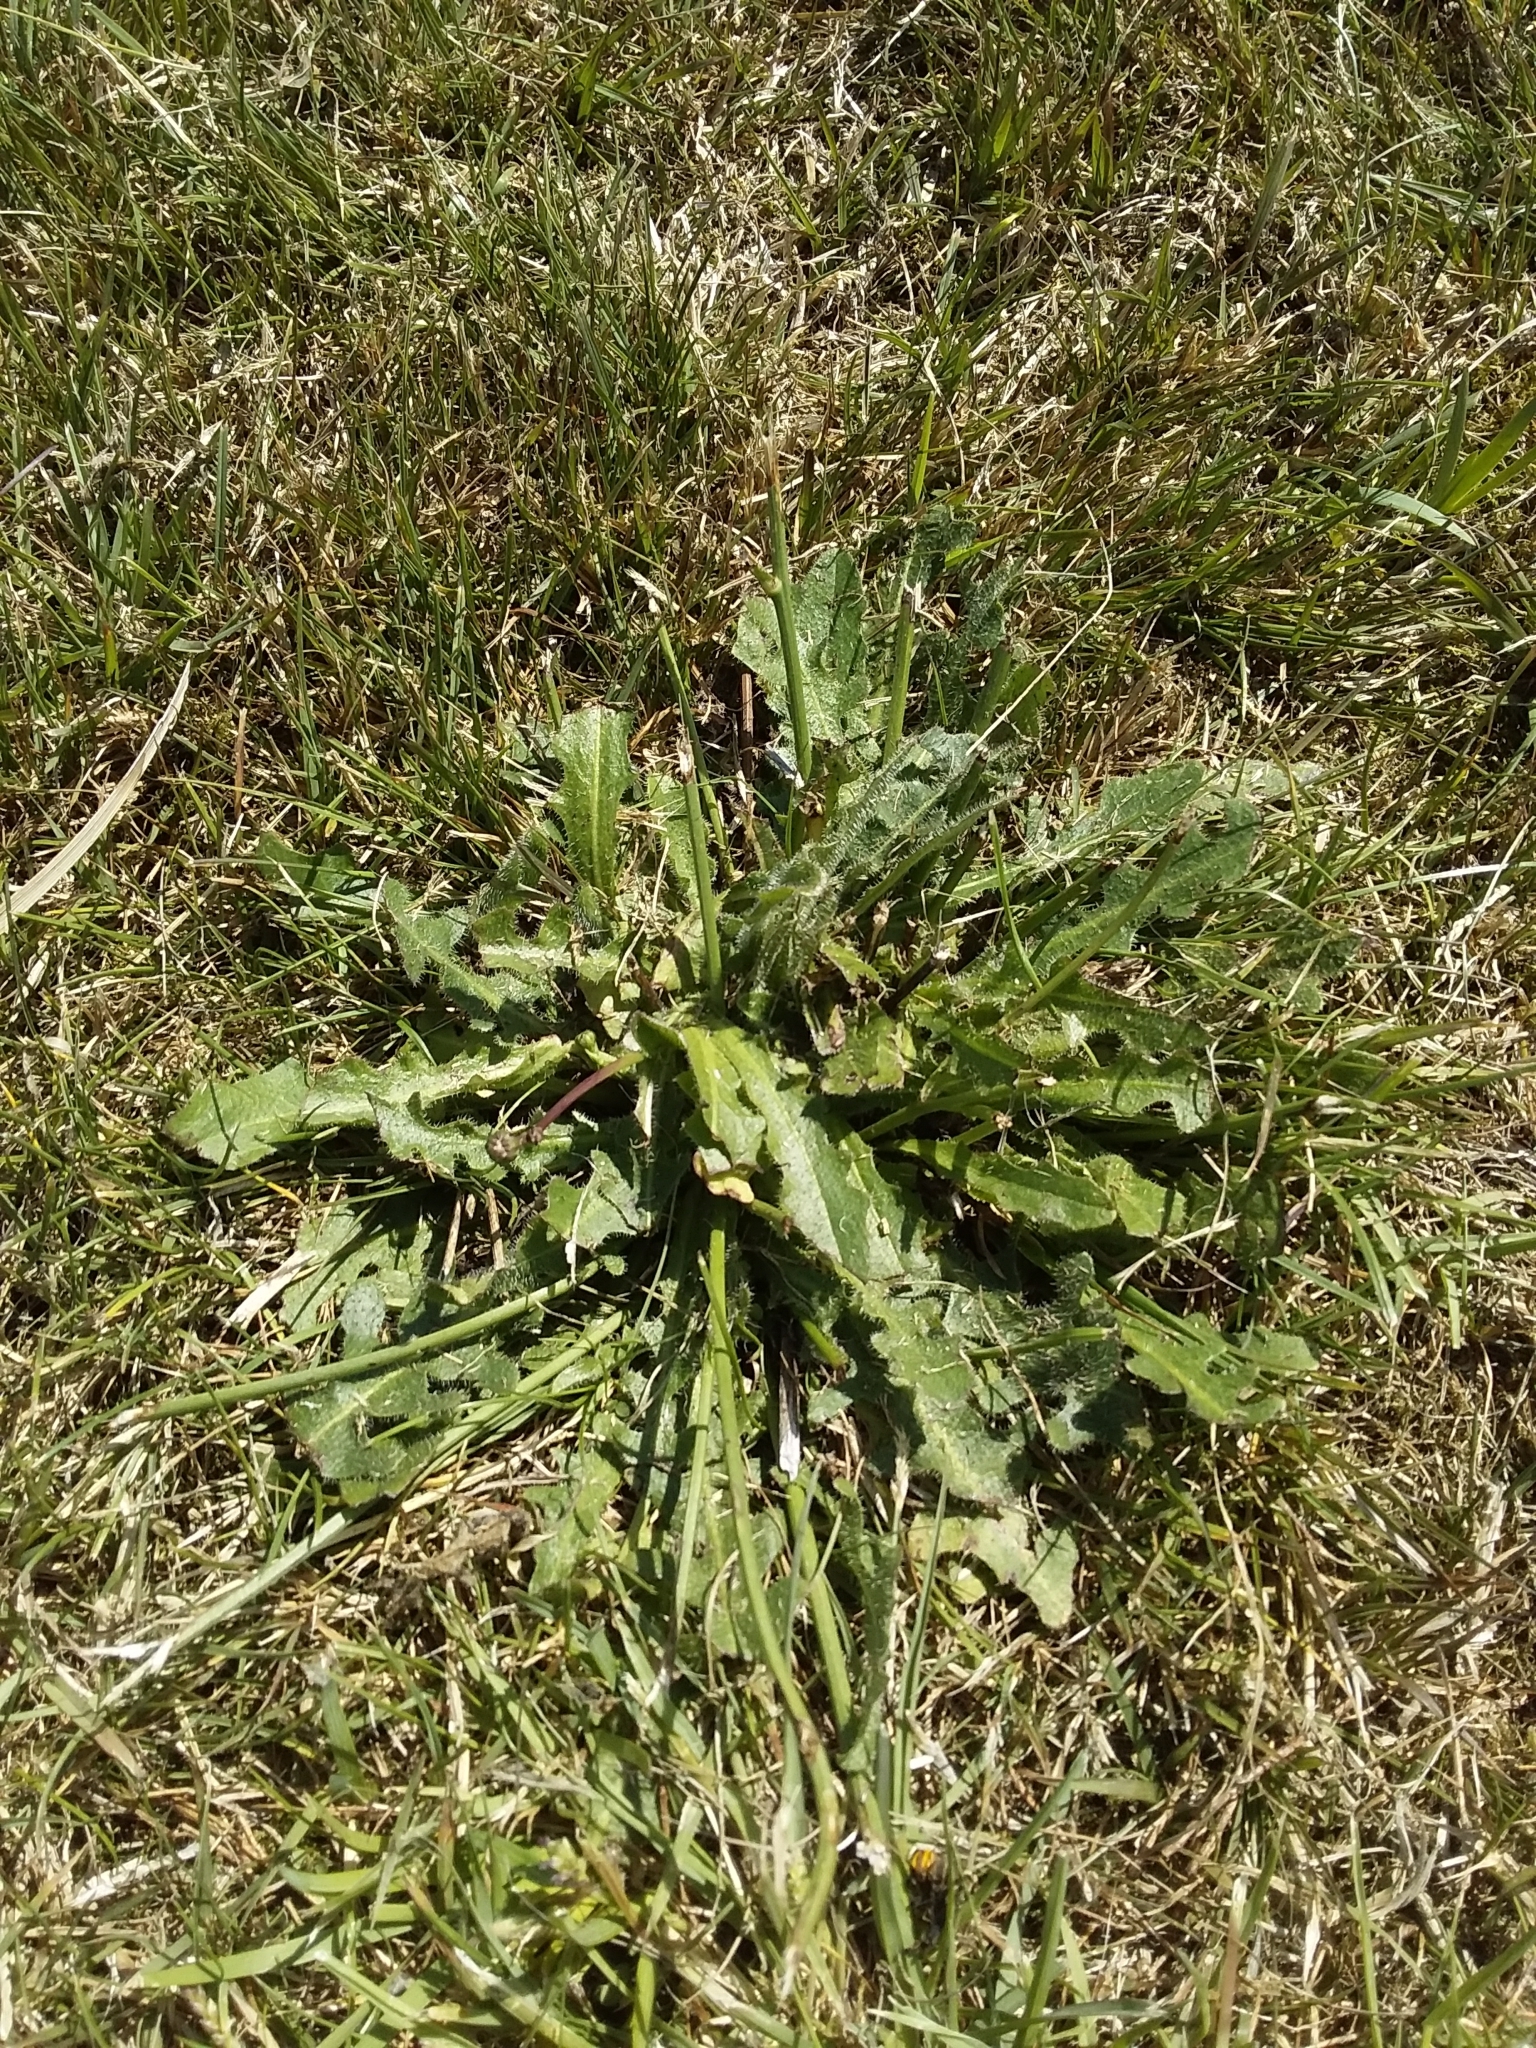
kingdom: Plantae
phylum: Tracheophyta
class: Magnoliopsida
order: Asterales
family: Asteraceae
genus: Hypochaeris
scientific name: Hypochaeris radicata
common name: Flatweed
